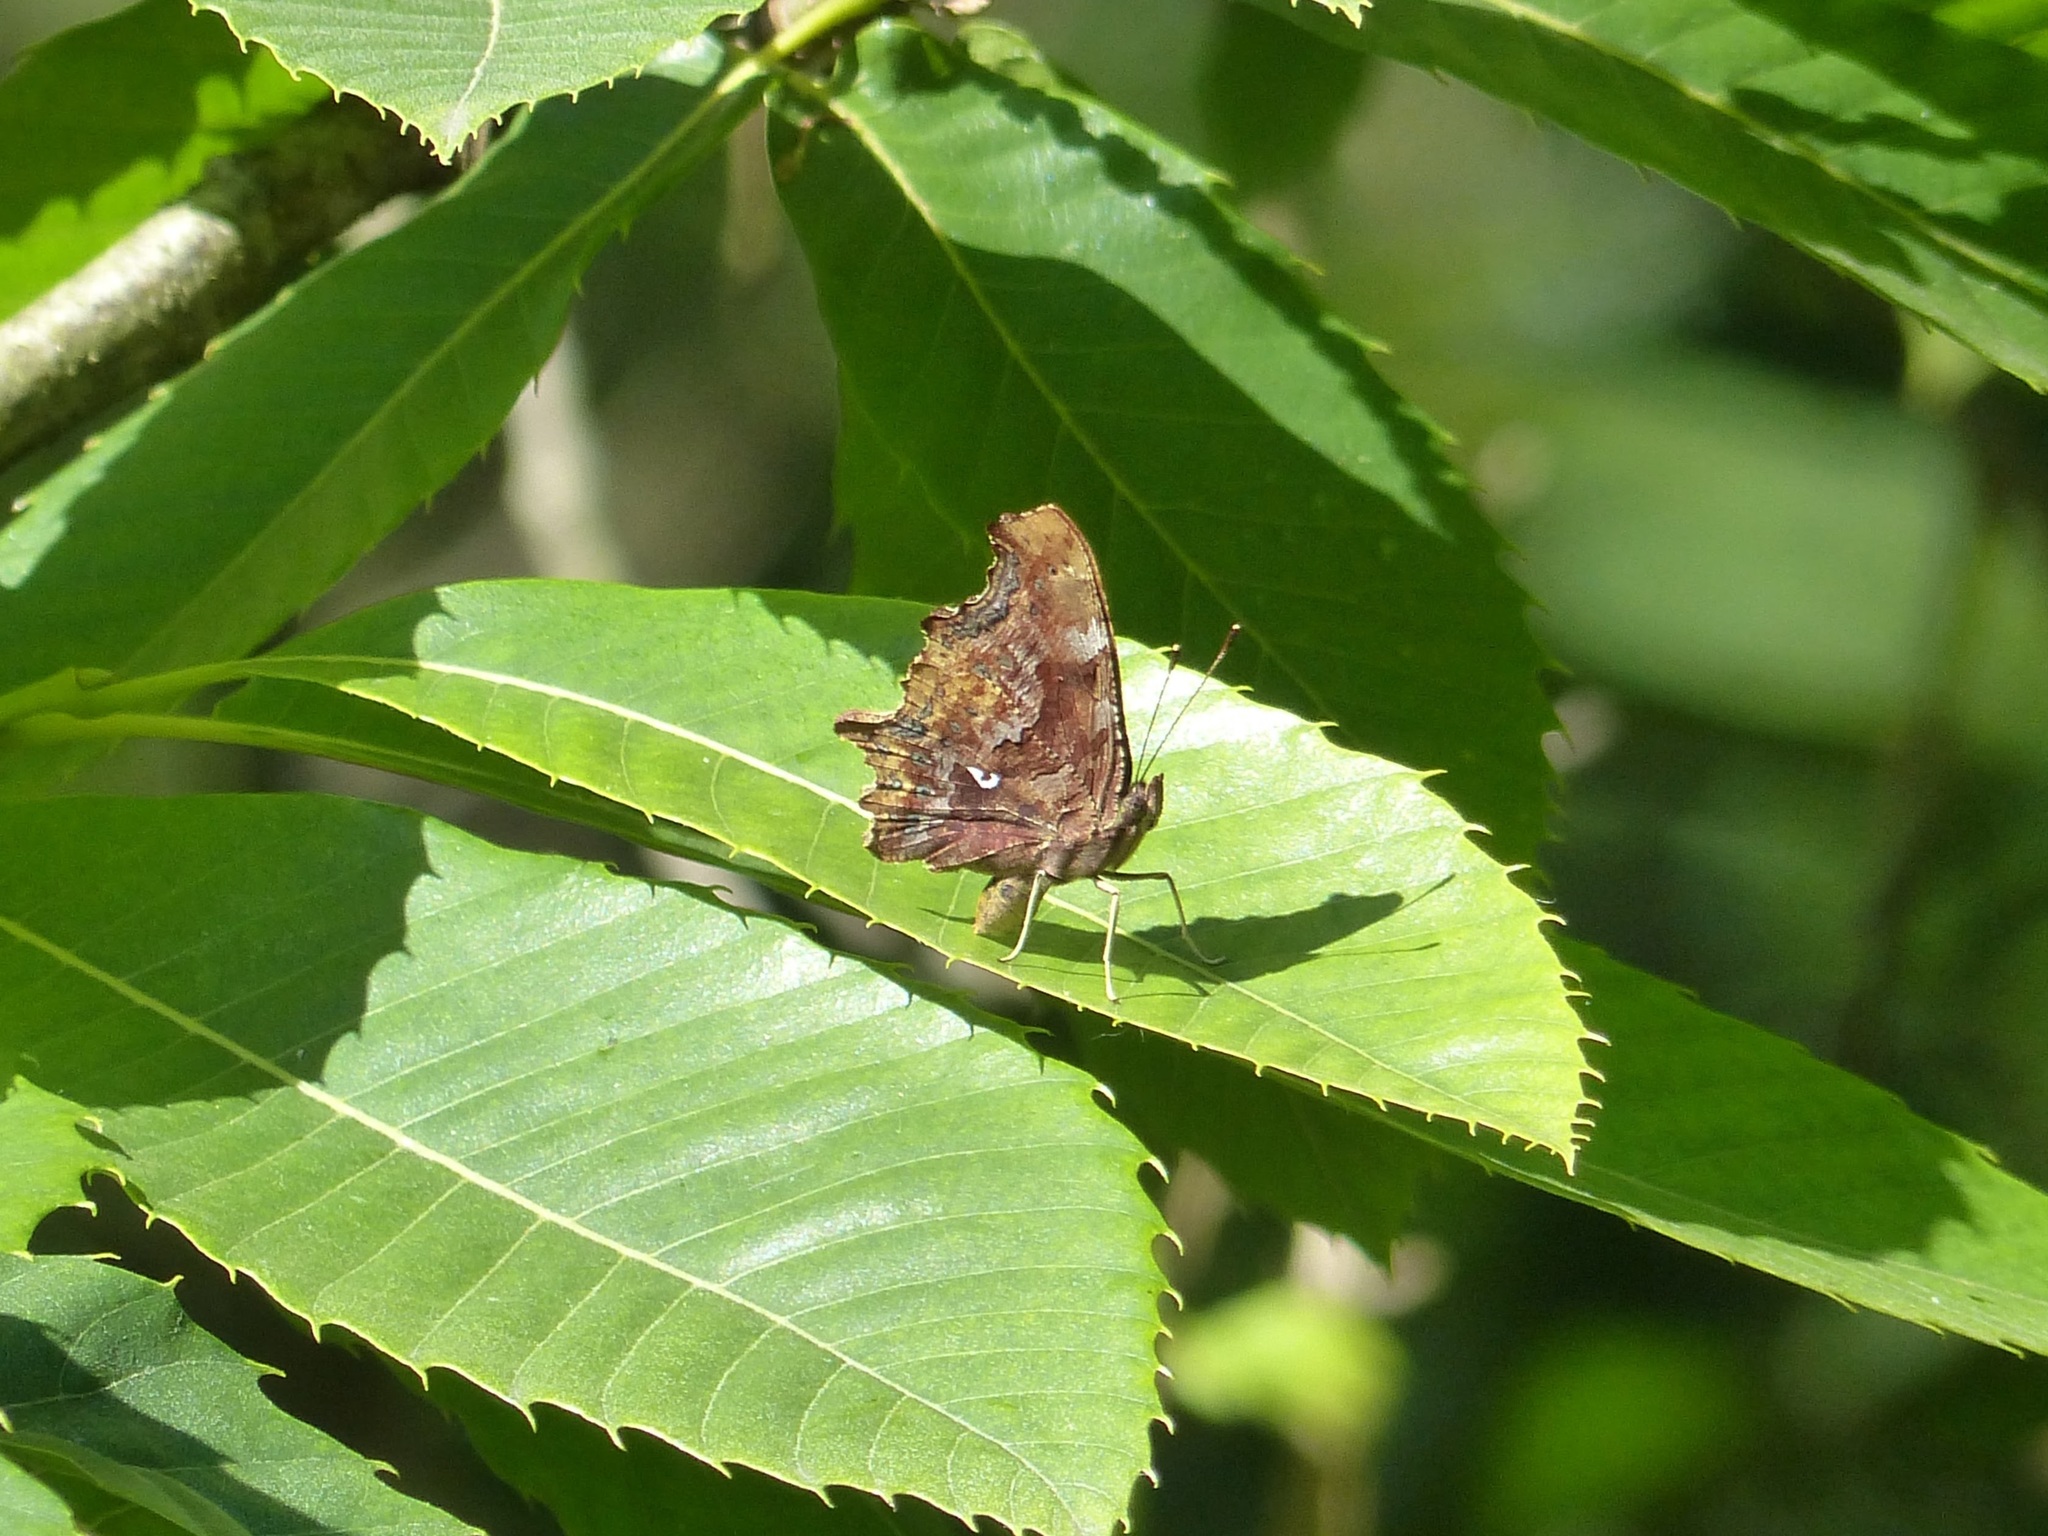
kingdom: Animalia
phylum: Arthropoda
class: Insecta
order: Lepidoptera
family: Nymphalidae
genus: Polygonia
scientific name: Polygonia c-album
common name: Comma
